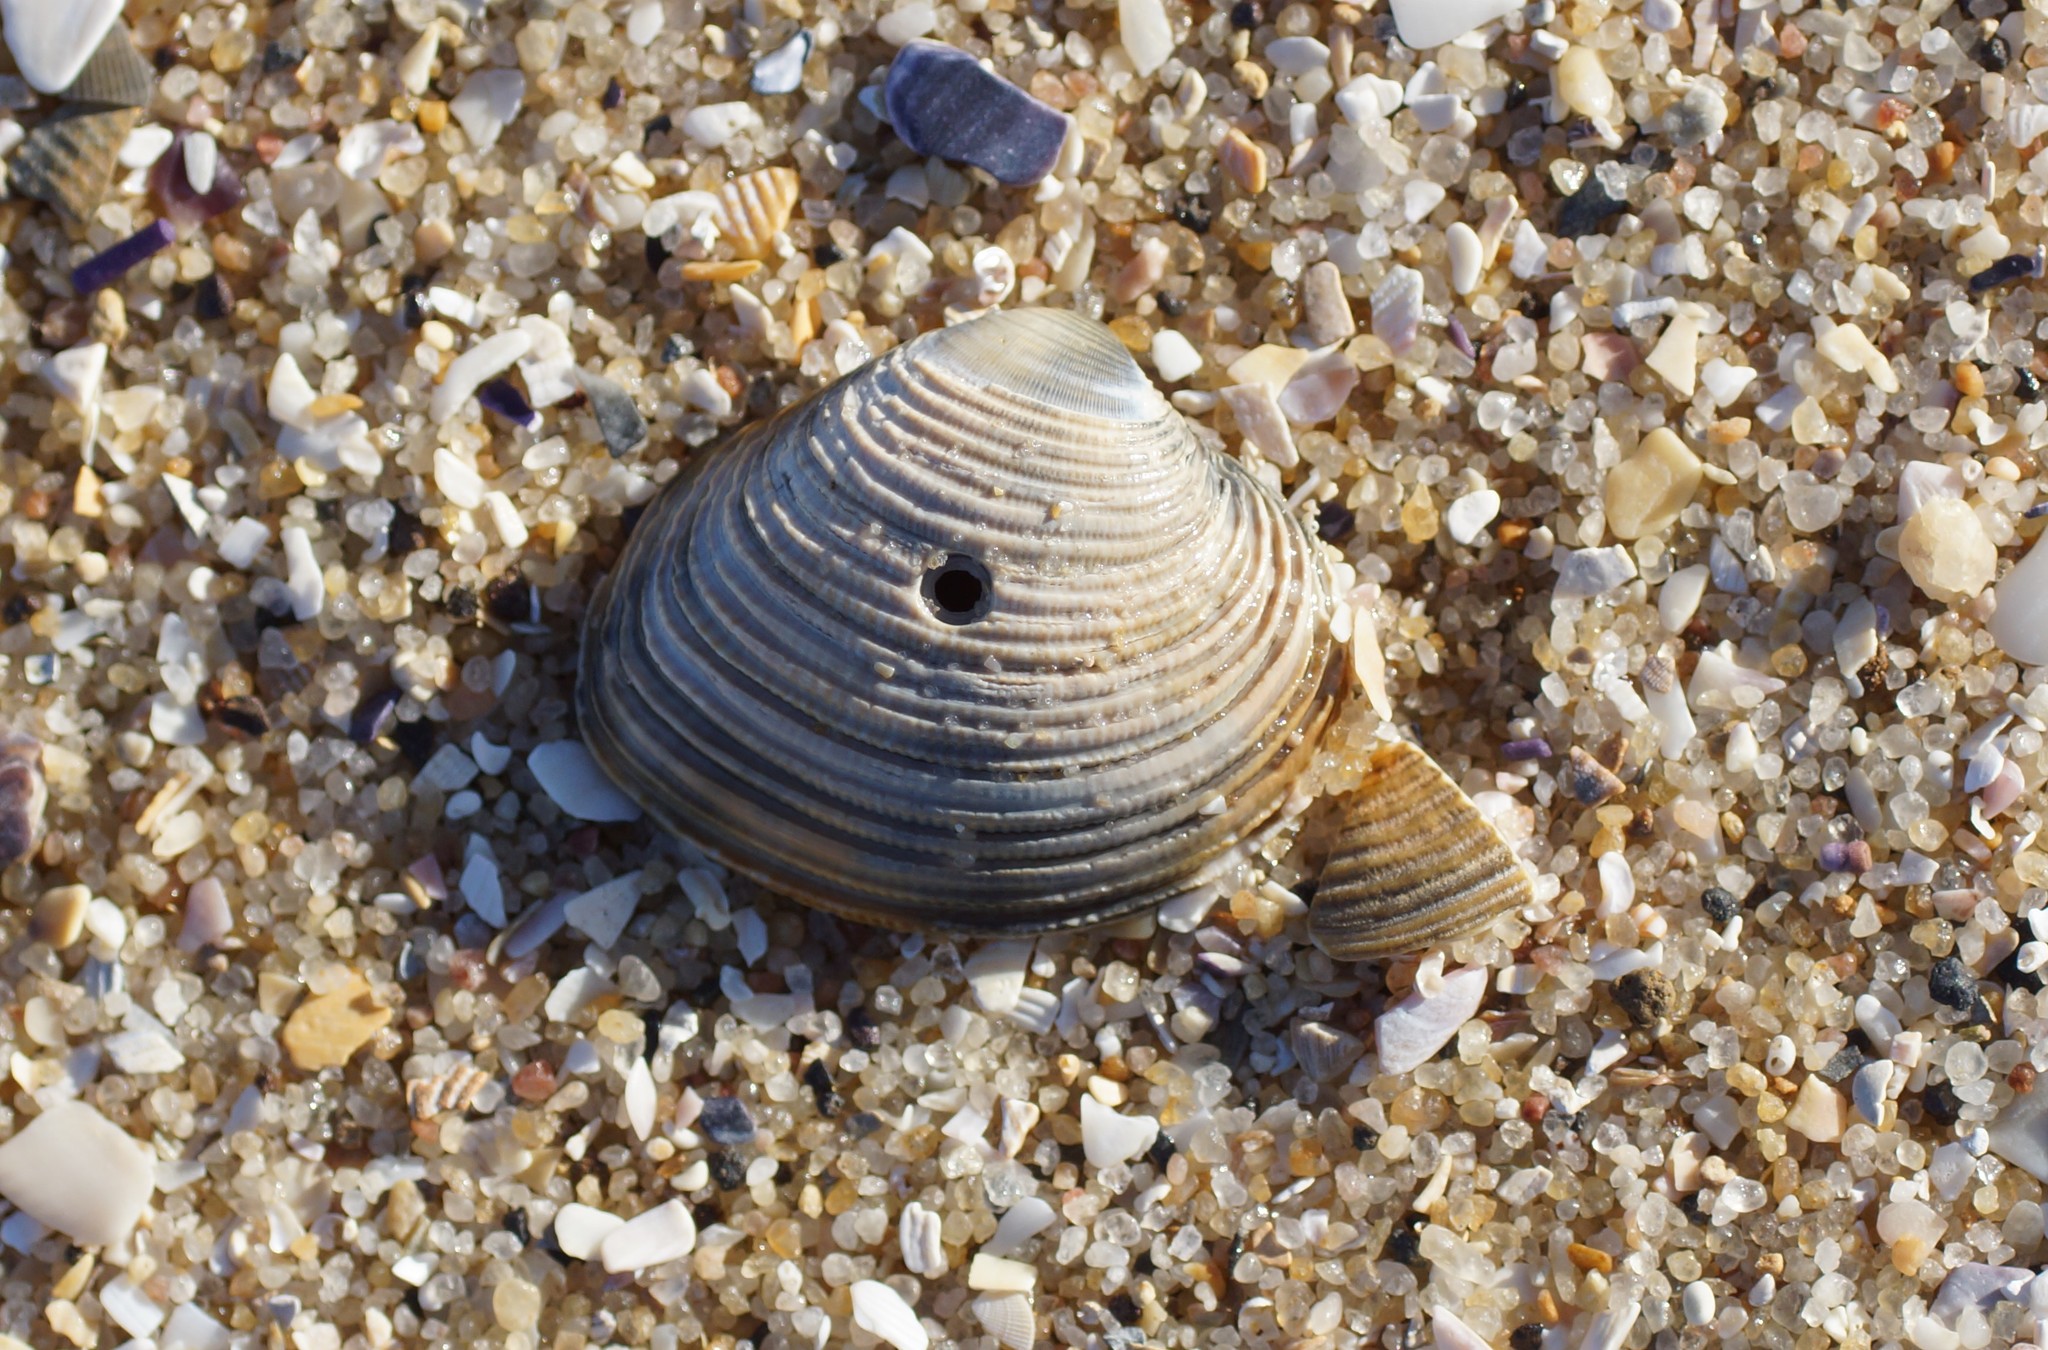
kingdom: Animalia
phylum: Mollusca
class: Bivalvia
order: Venerida
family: Veneridae
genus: Tawera
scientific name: Tawera gallinula
